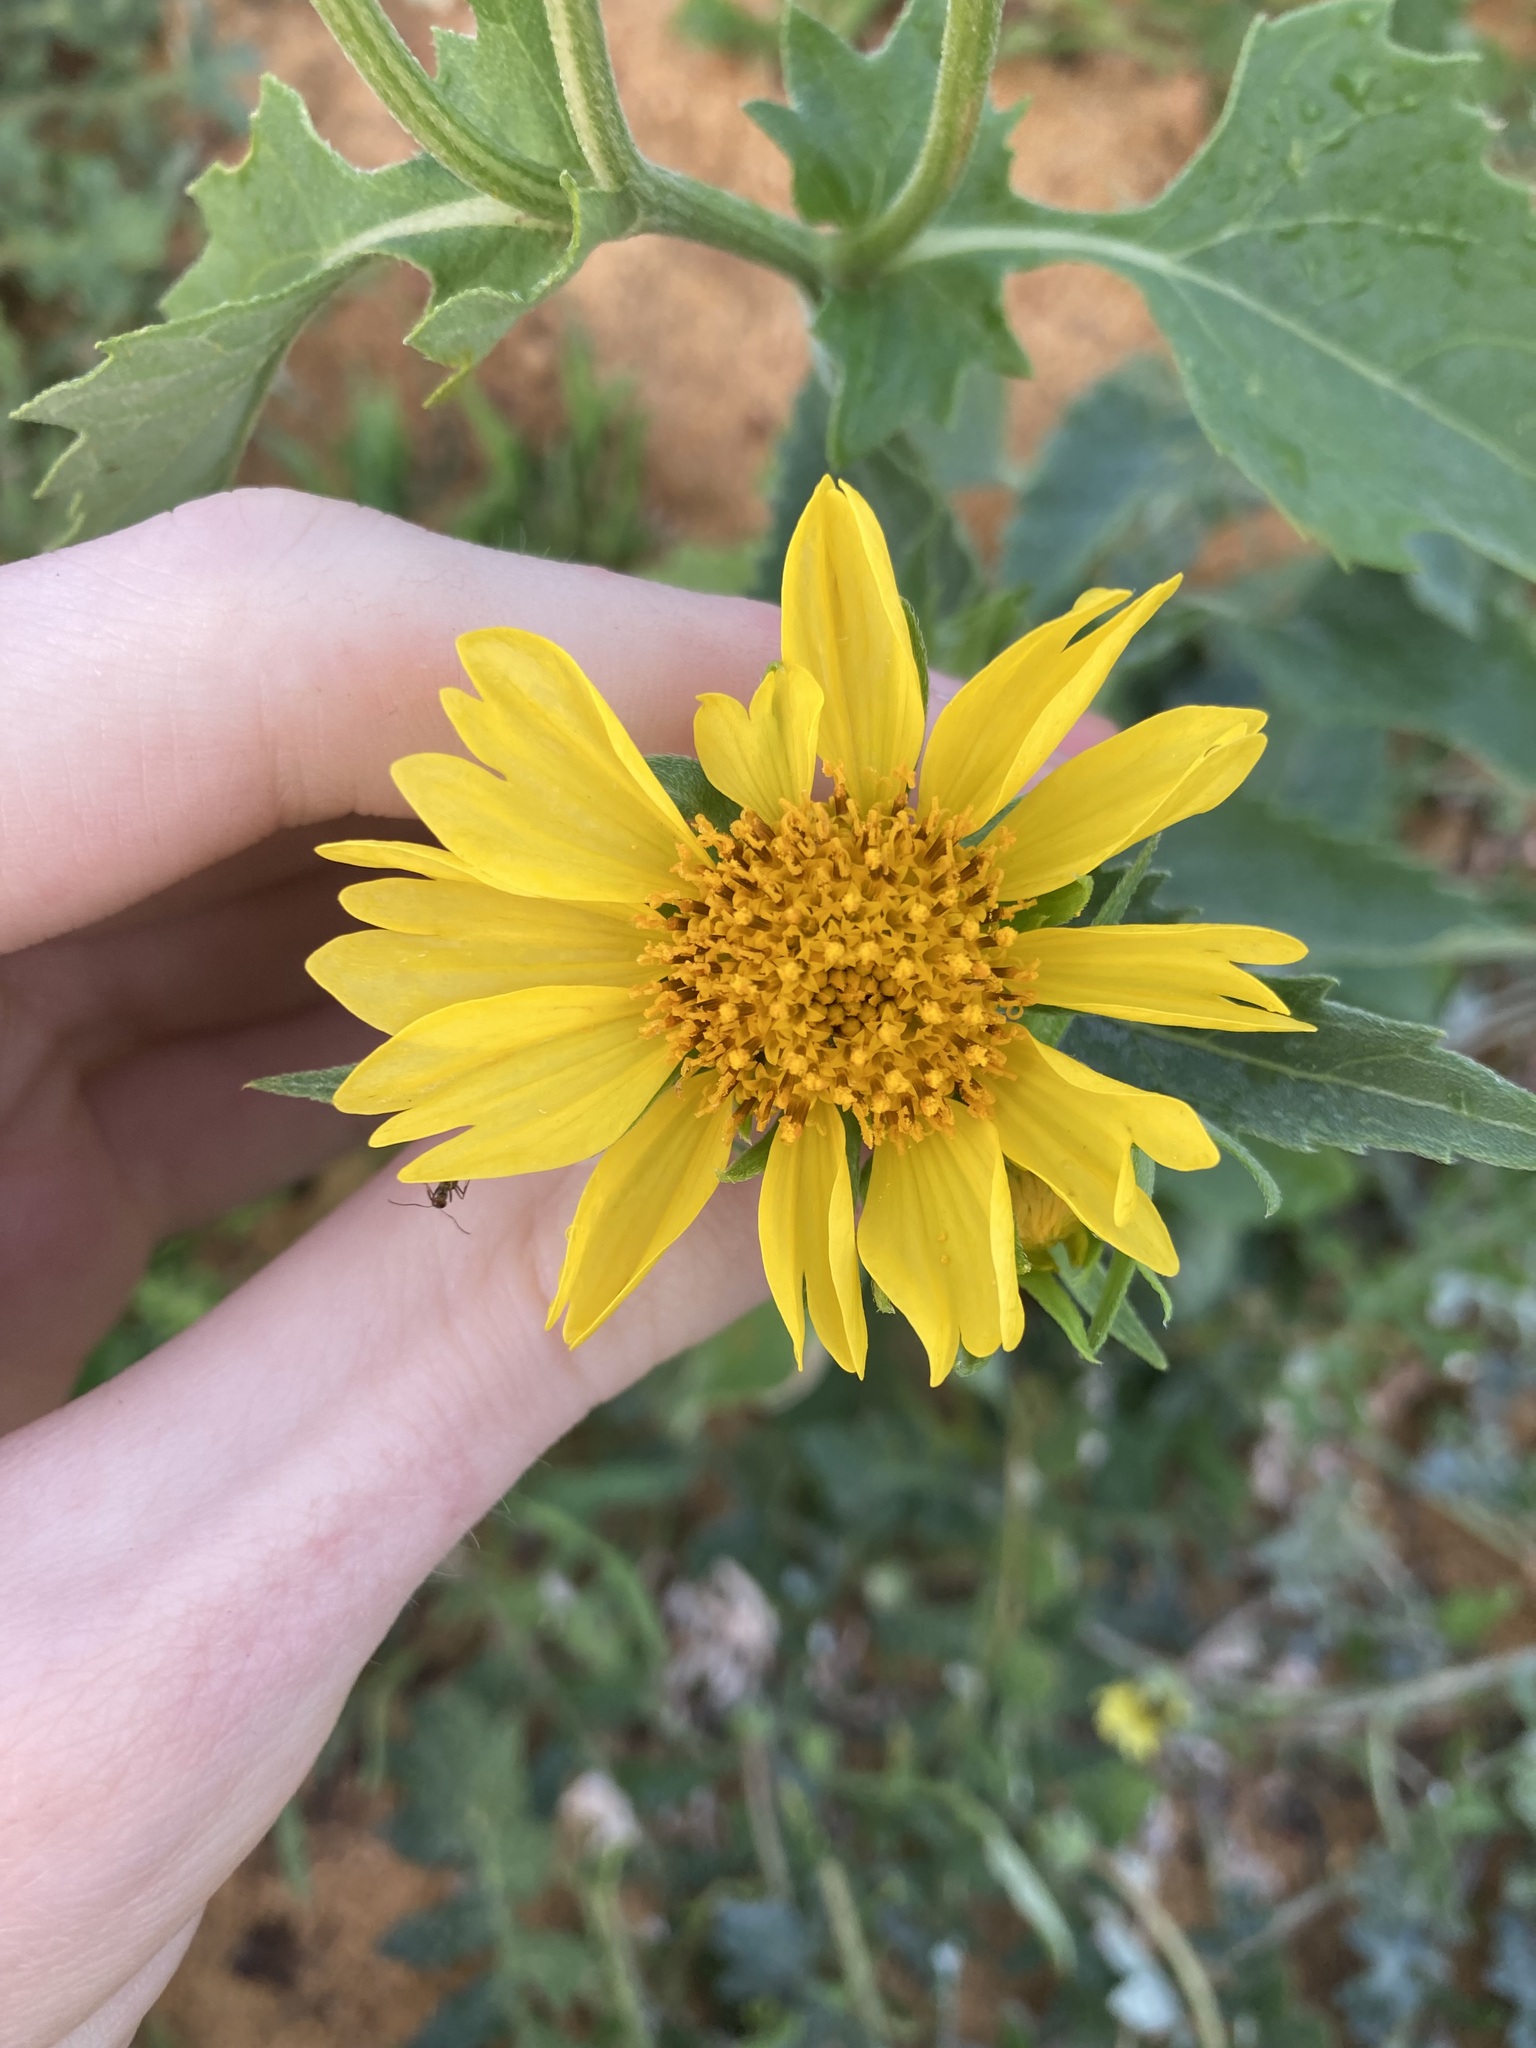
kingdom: Plantae
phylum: Tracheophyta
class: Magnoliopsida
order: Asterales
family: Asteraceae
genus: Verbesina
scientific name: Verbesina encelioides
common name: Golden crownbeard
